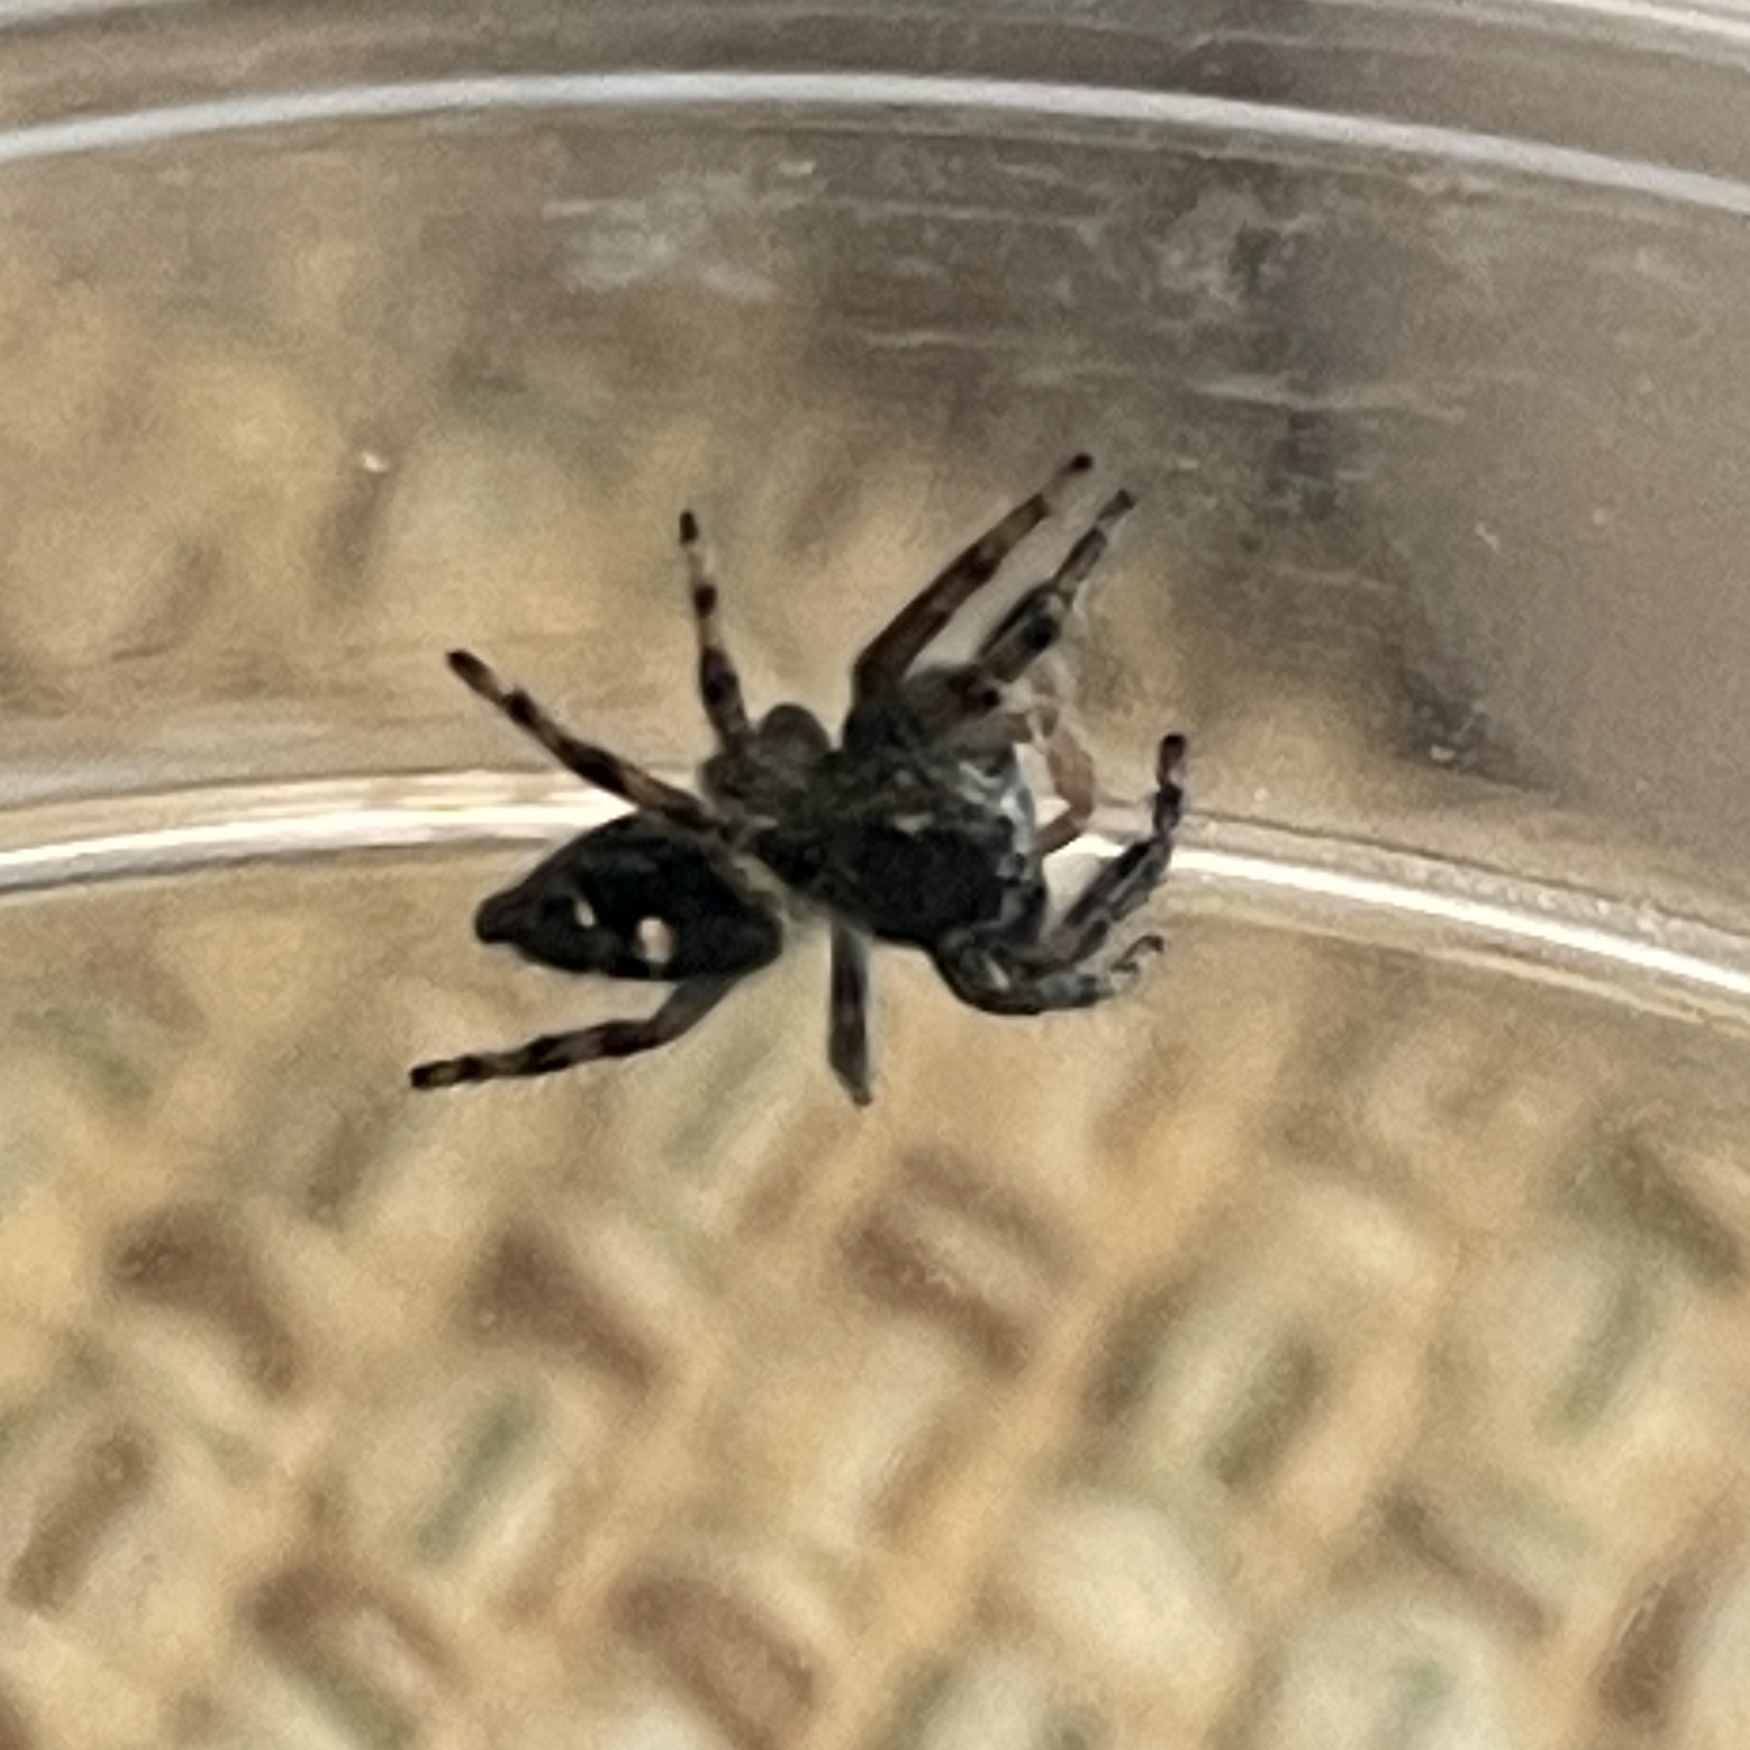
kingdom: Animalia
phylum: Arthropoda
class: Arachnida
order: Araneae
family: Salticidae
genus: Phidippus
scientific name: Phidippus audax
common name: Bold jumper
